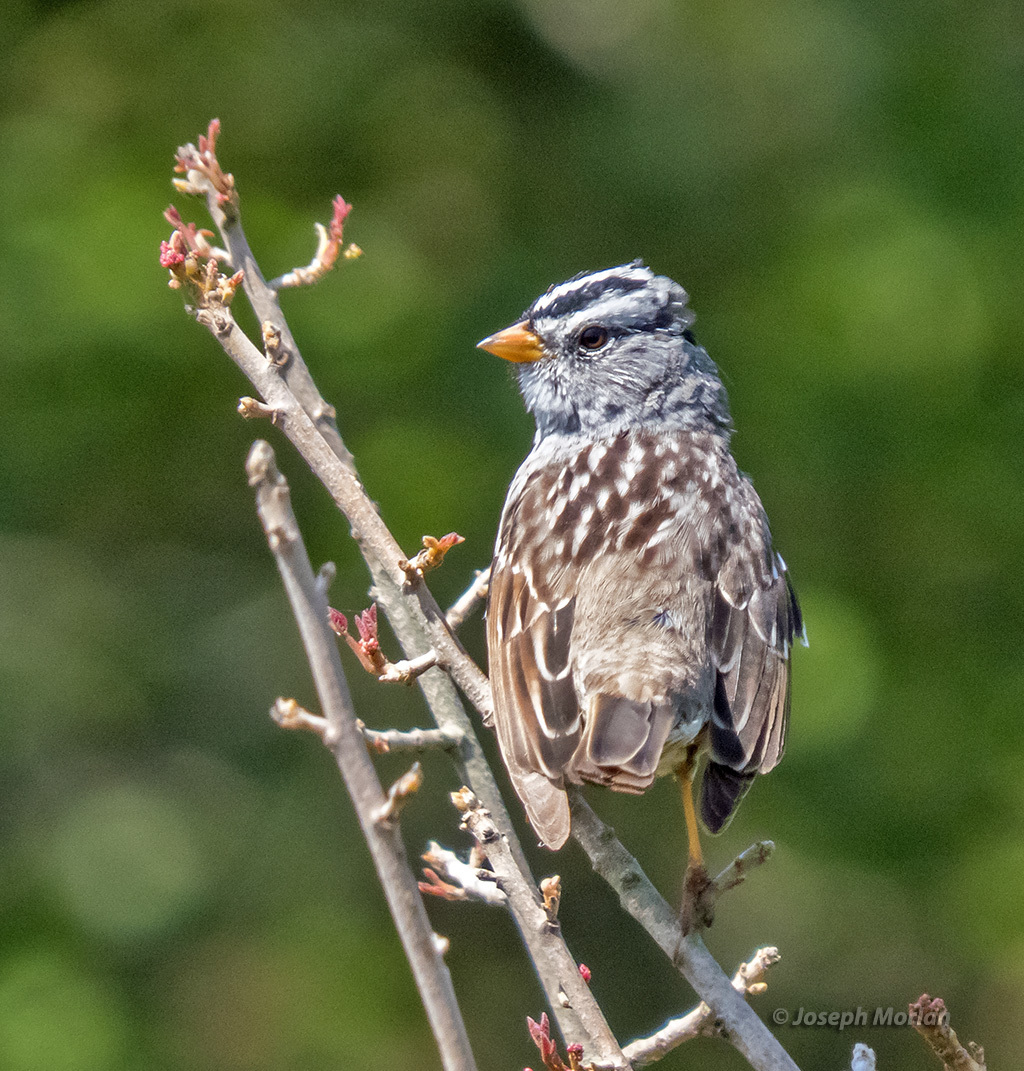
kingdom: Animalia
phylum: Chordata
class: Aves
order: Passeriformes
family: Passerellidae
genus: Zonotrichia
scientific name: Zonotrichia leucophrys
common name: White-crowned sparrow
